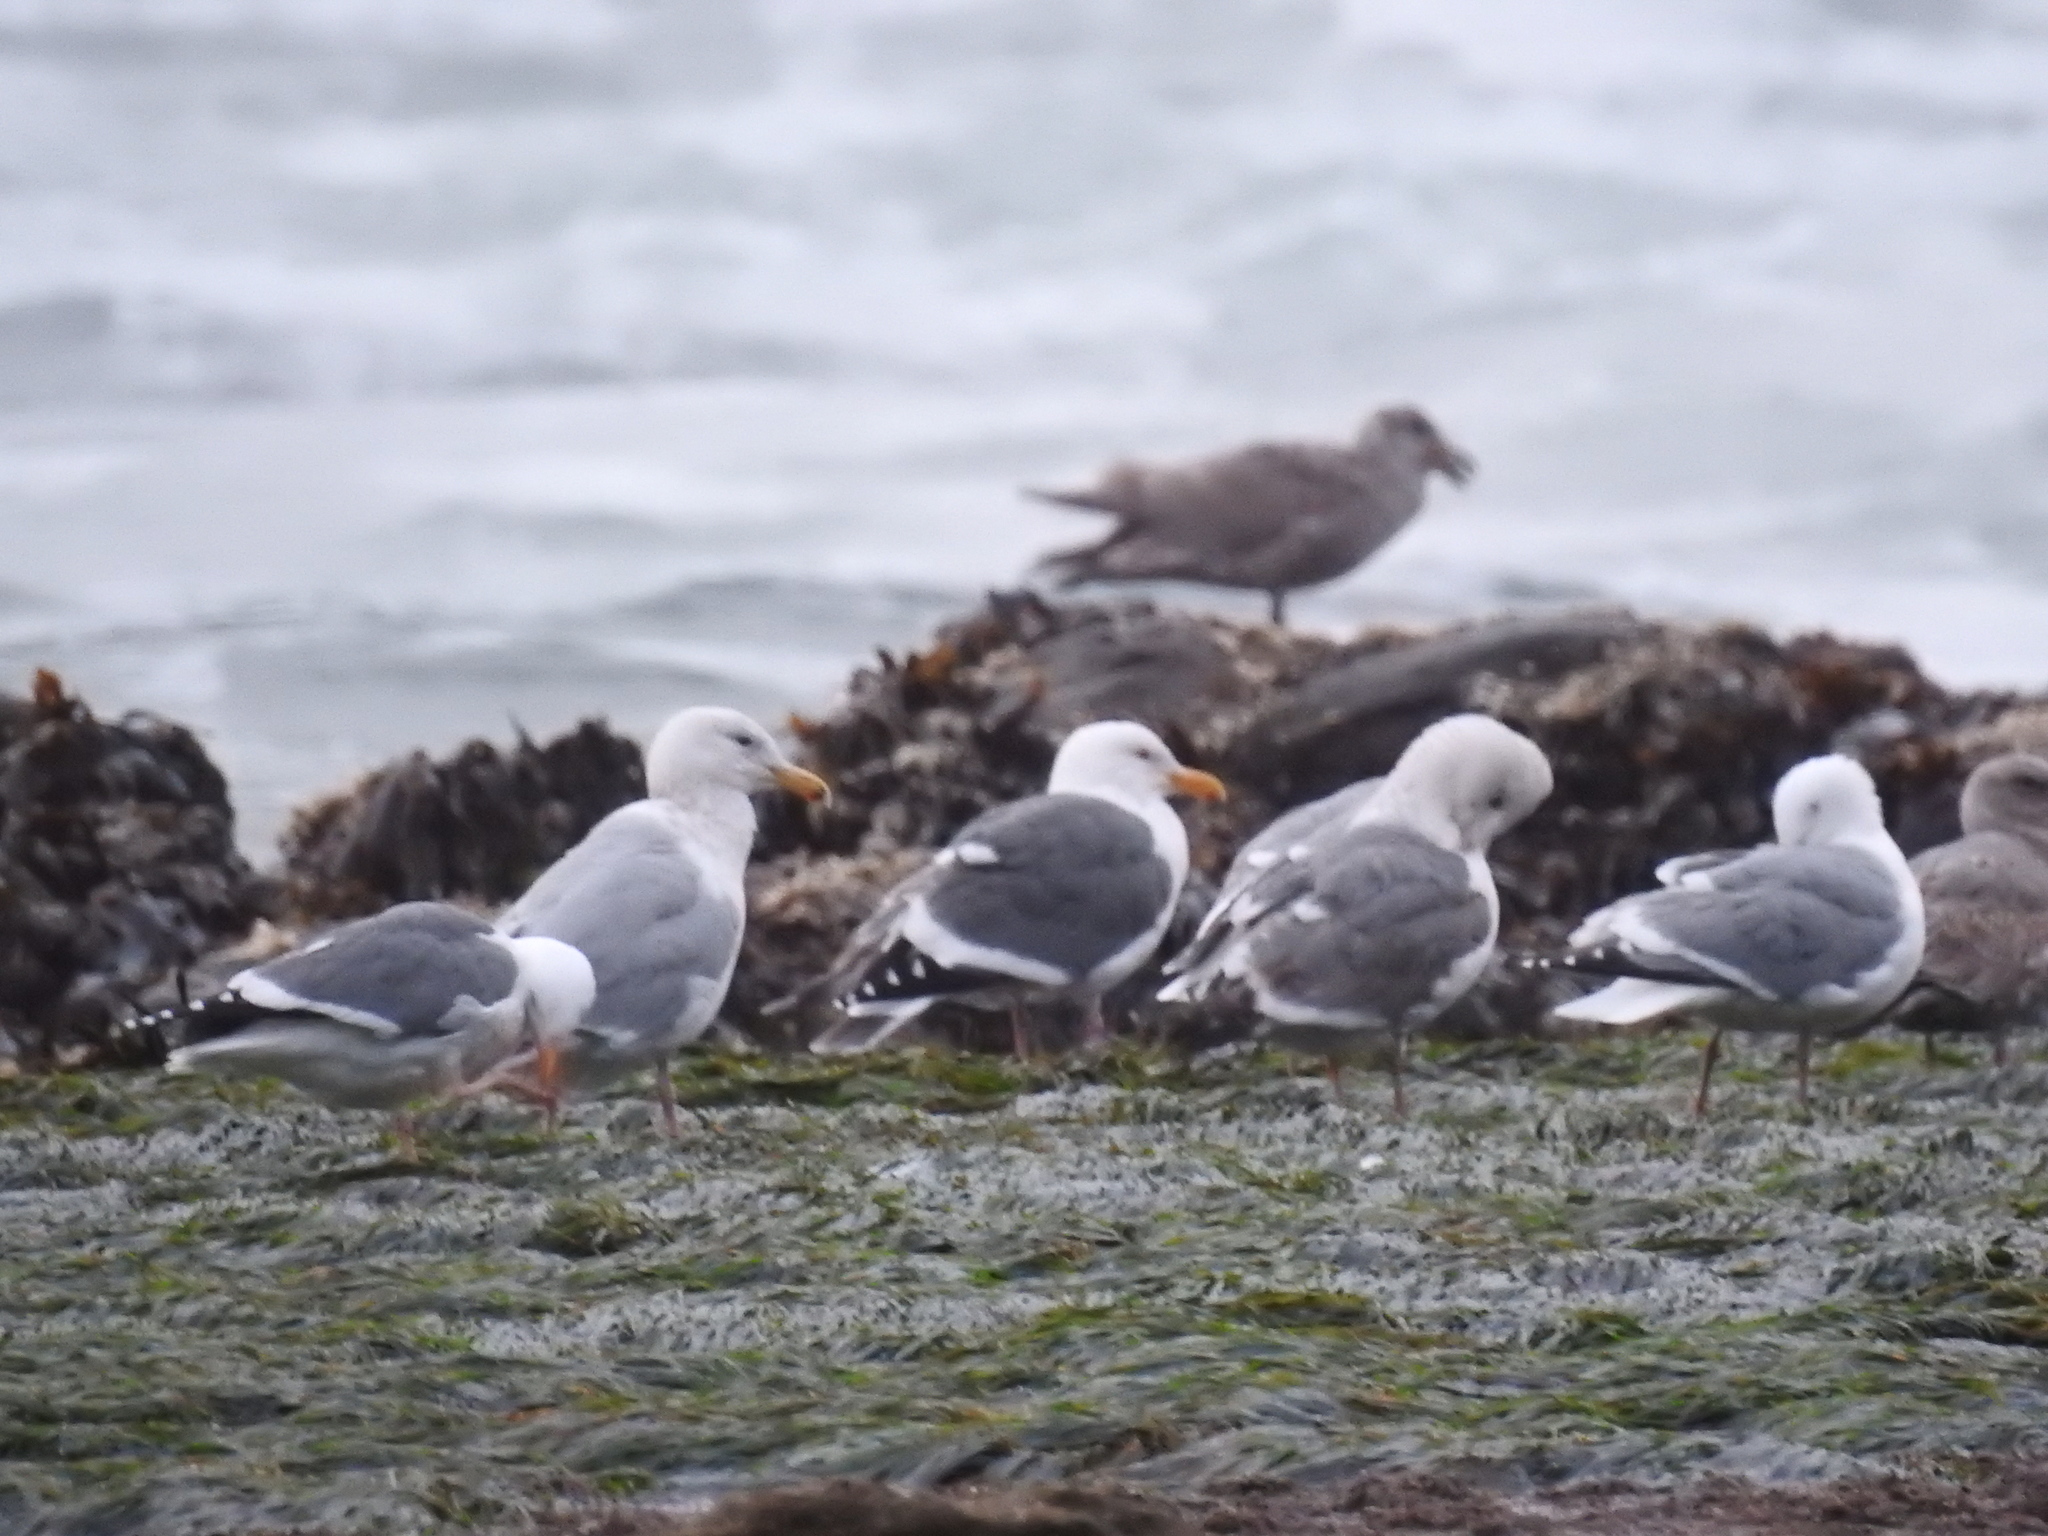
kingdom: Animalia
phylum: Chordata
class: Aves
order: Charadriiformes
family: Laridae
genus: Larus
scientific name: Larus
